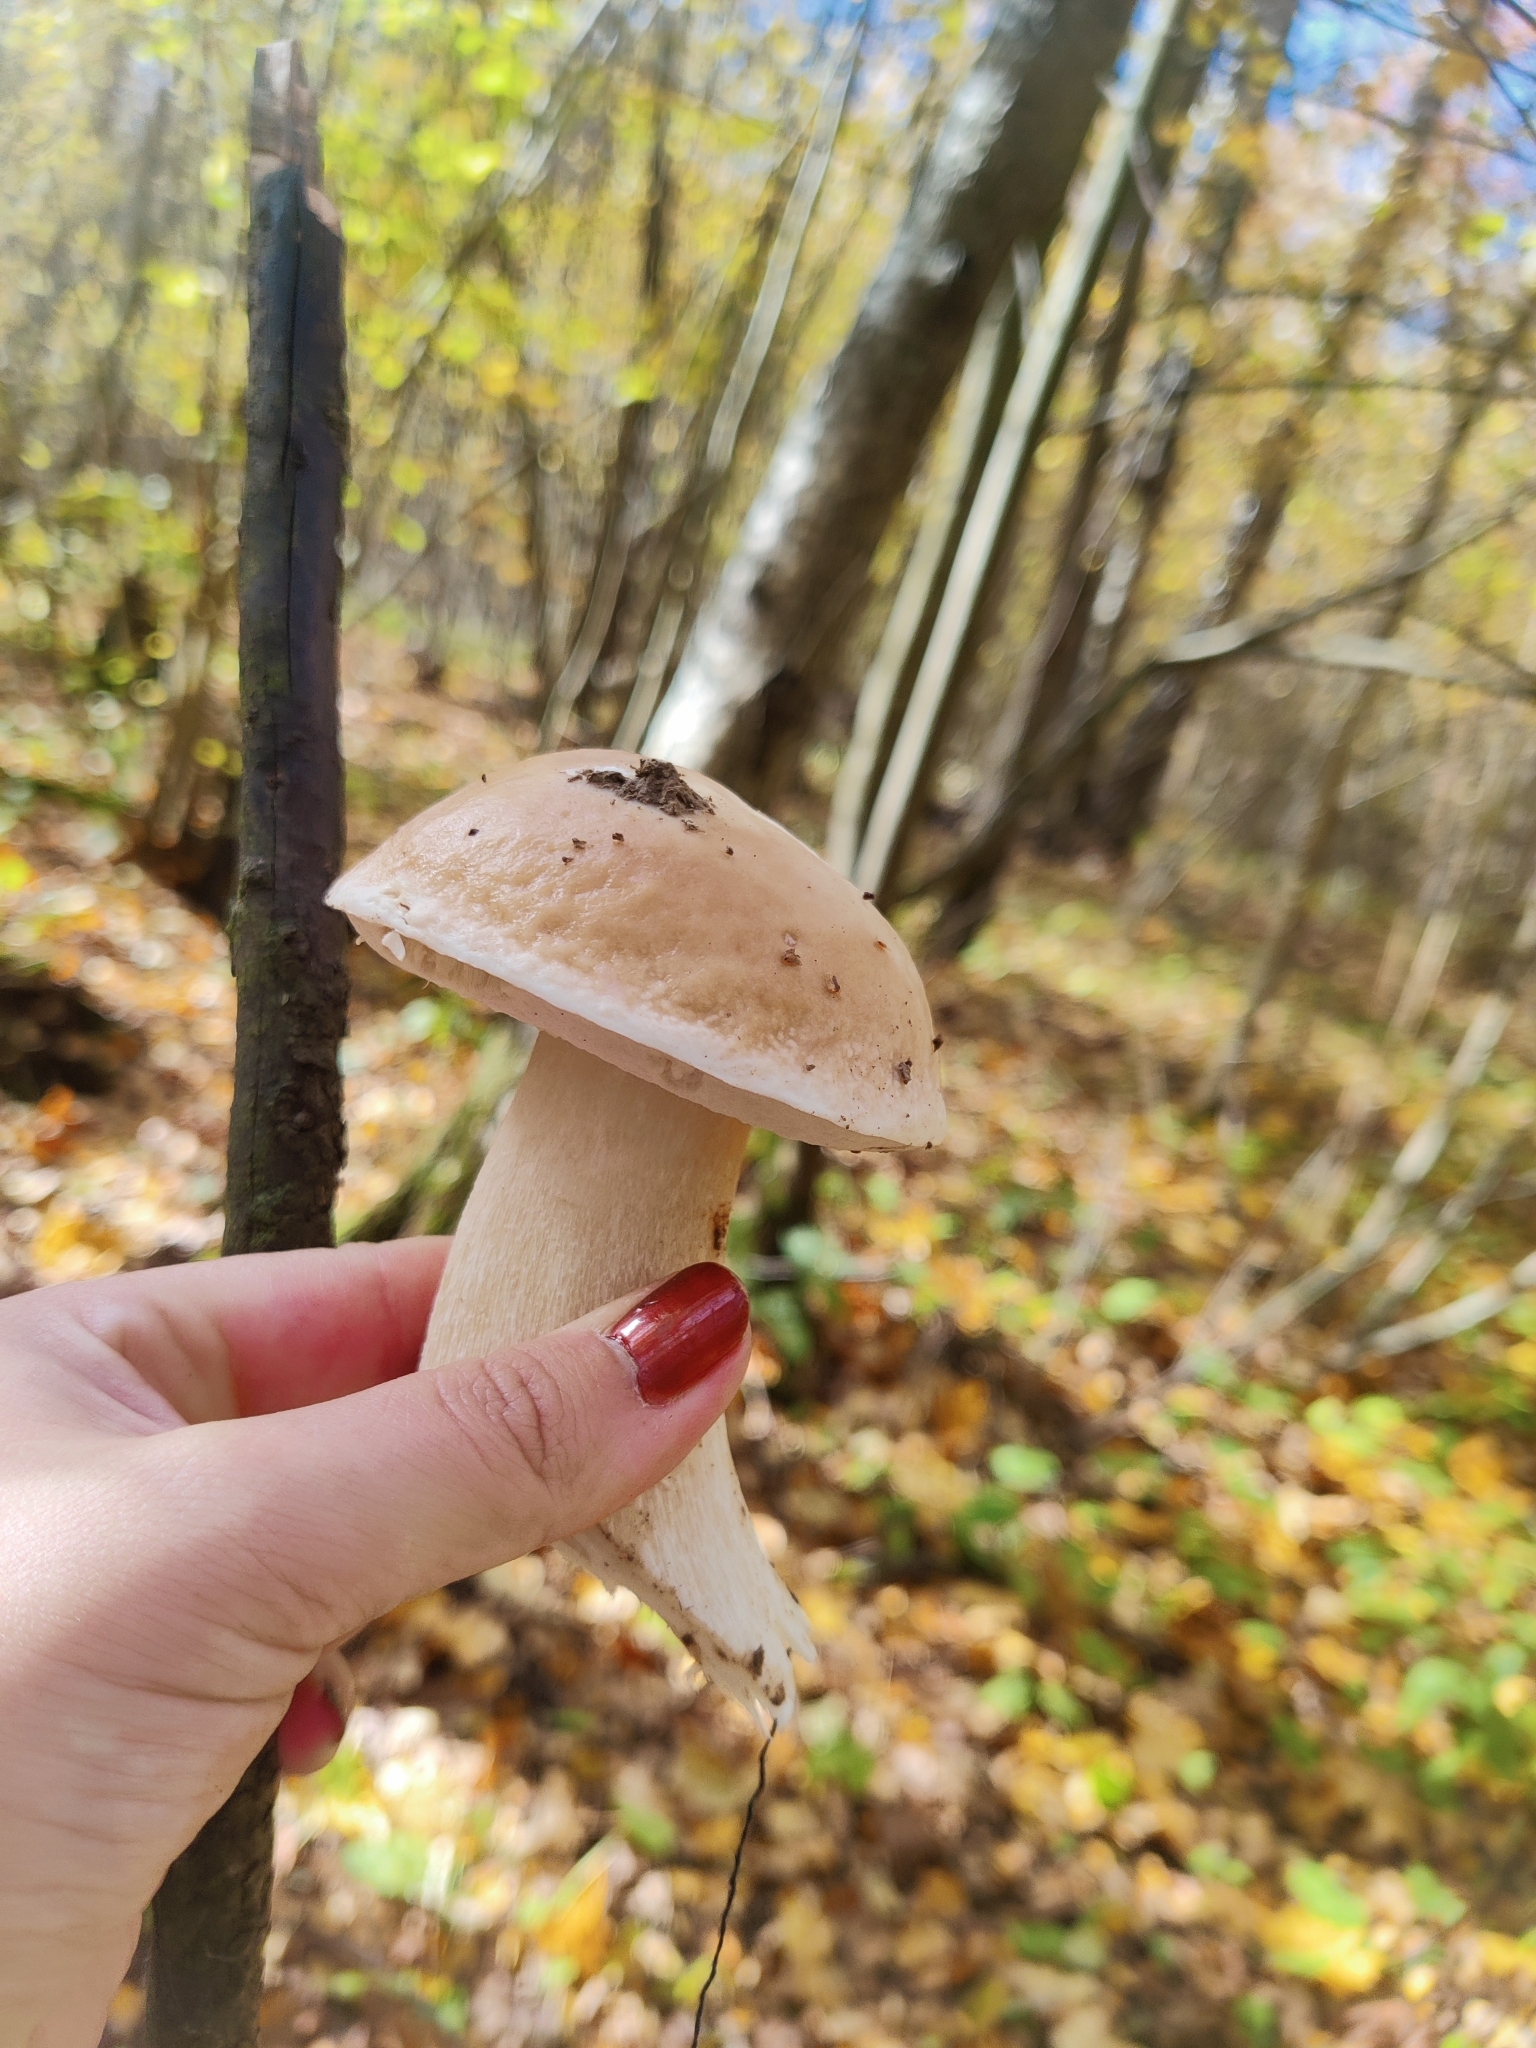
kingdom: Fungi
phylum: Basidiomycota
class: Agaricomycetes
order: Boletales
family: Boletaceae
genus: Boletus
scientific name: Boletus edulis
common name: Cep
